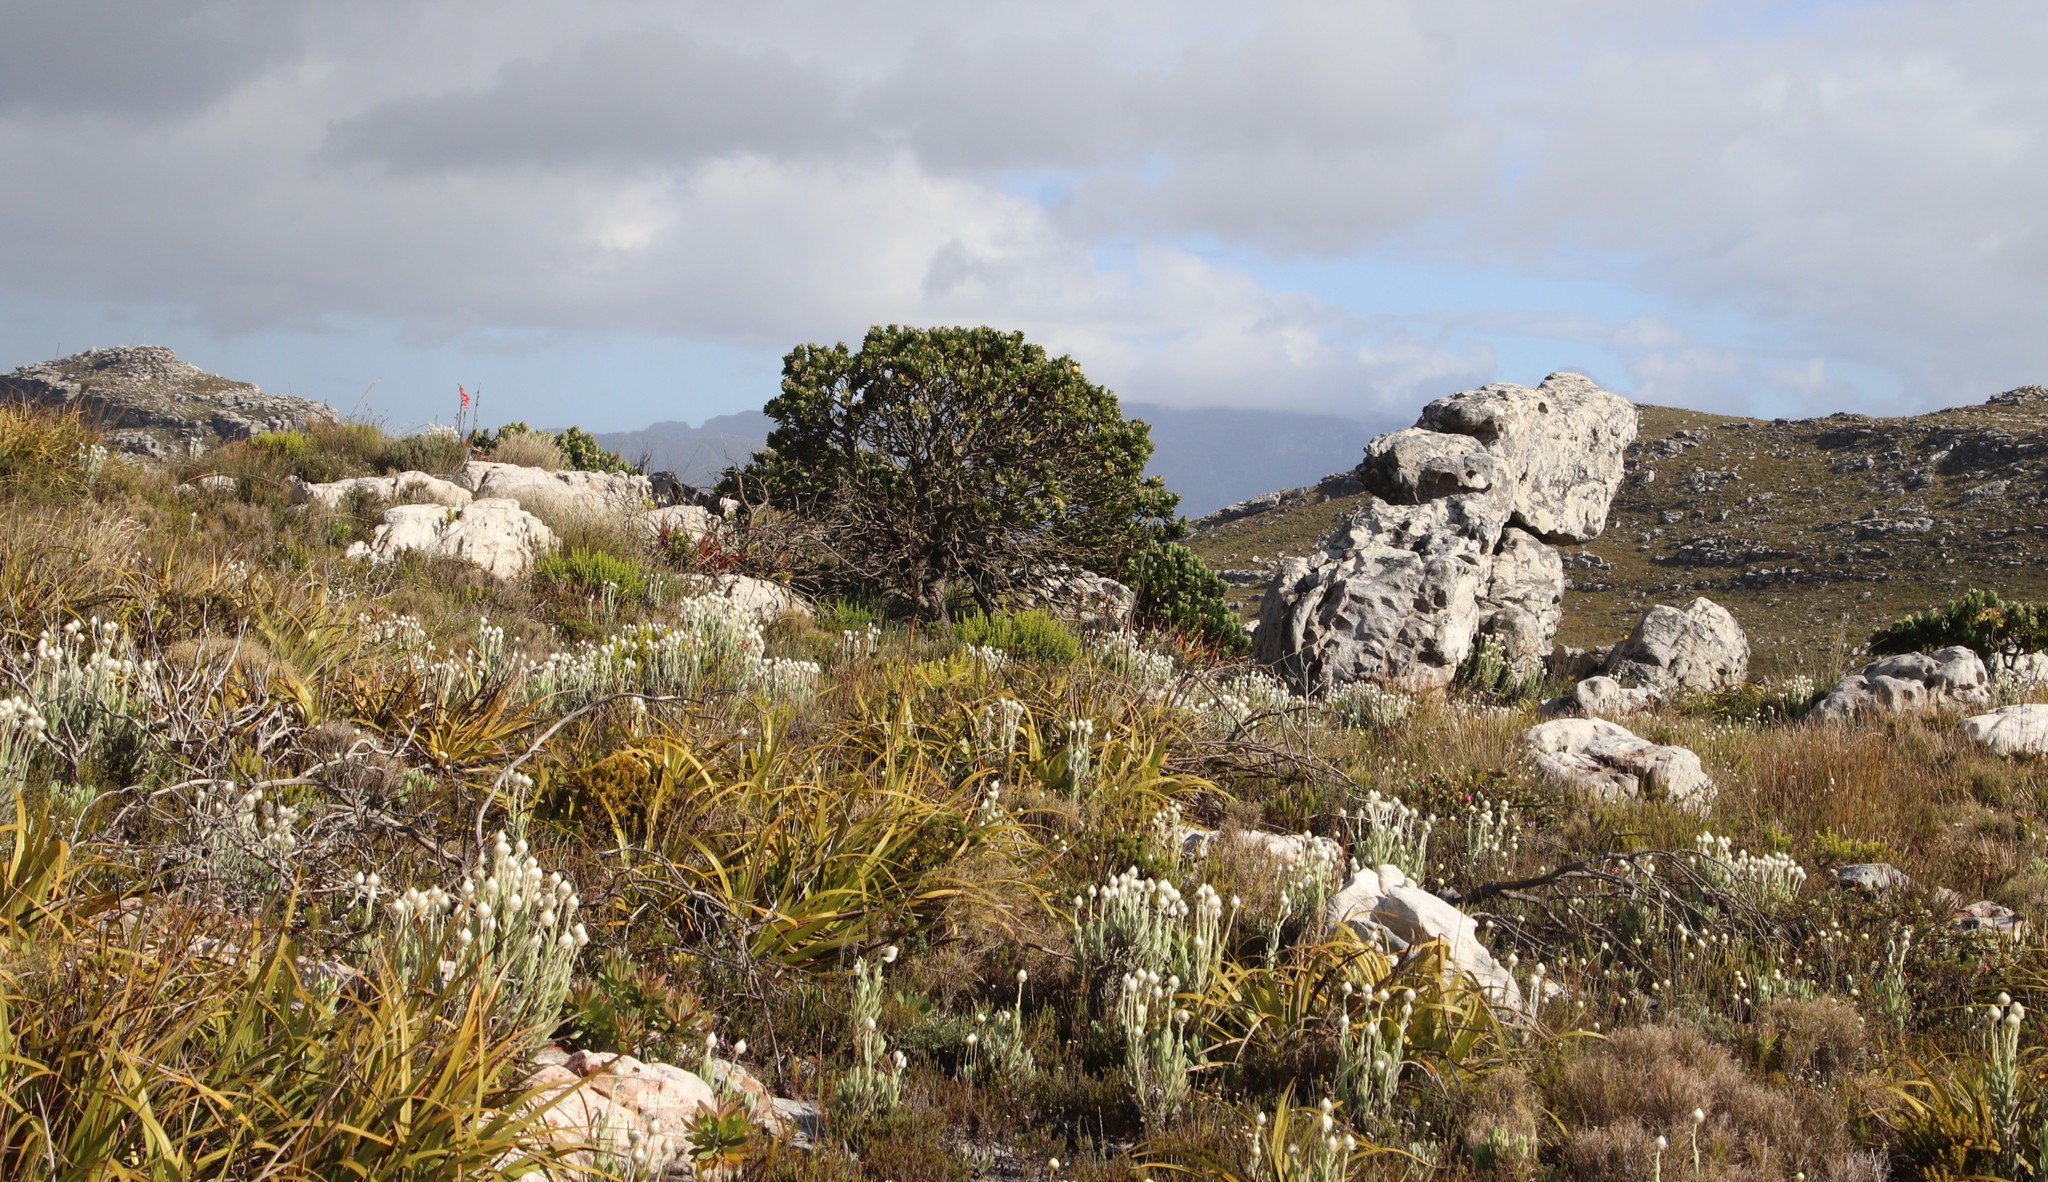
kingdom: Plantae
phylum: Tracheophyta
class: Magnoliopsida
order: Proteales
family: Proteaceae
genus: Leucospermum
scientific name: Leucospermum conocarpodendron
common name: Tree pincushion
